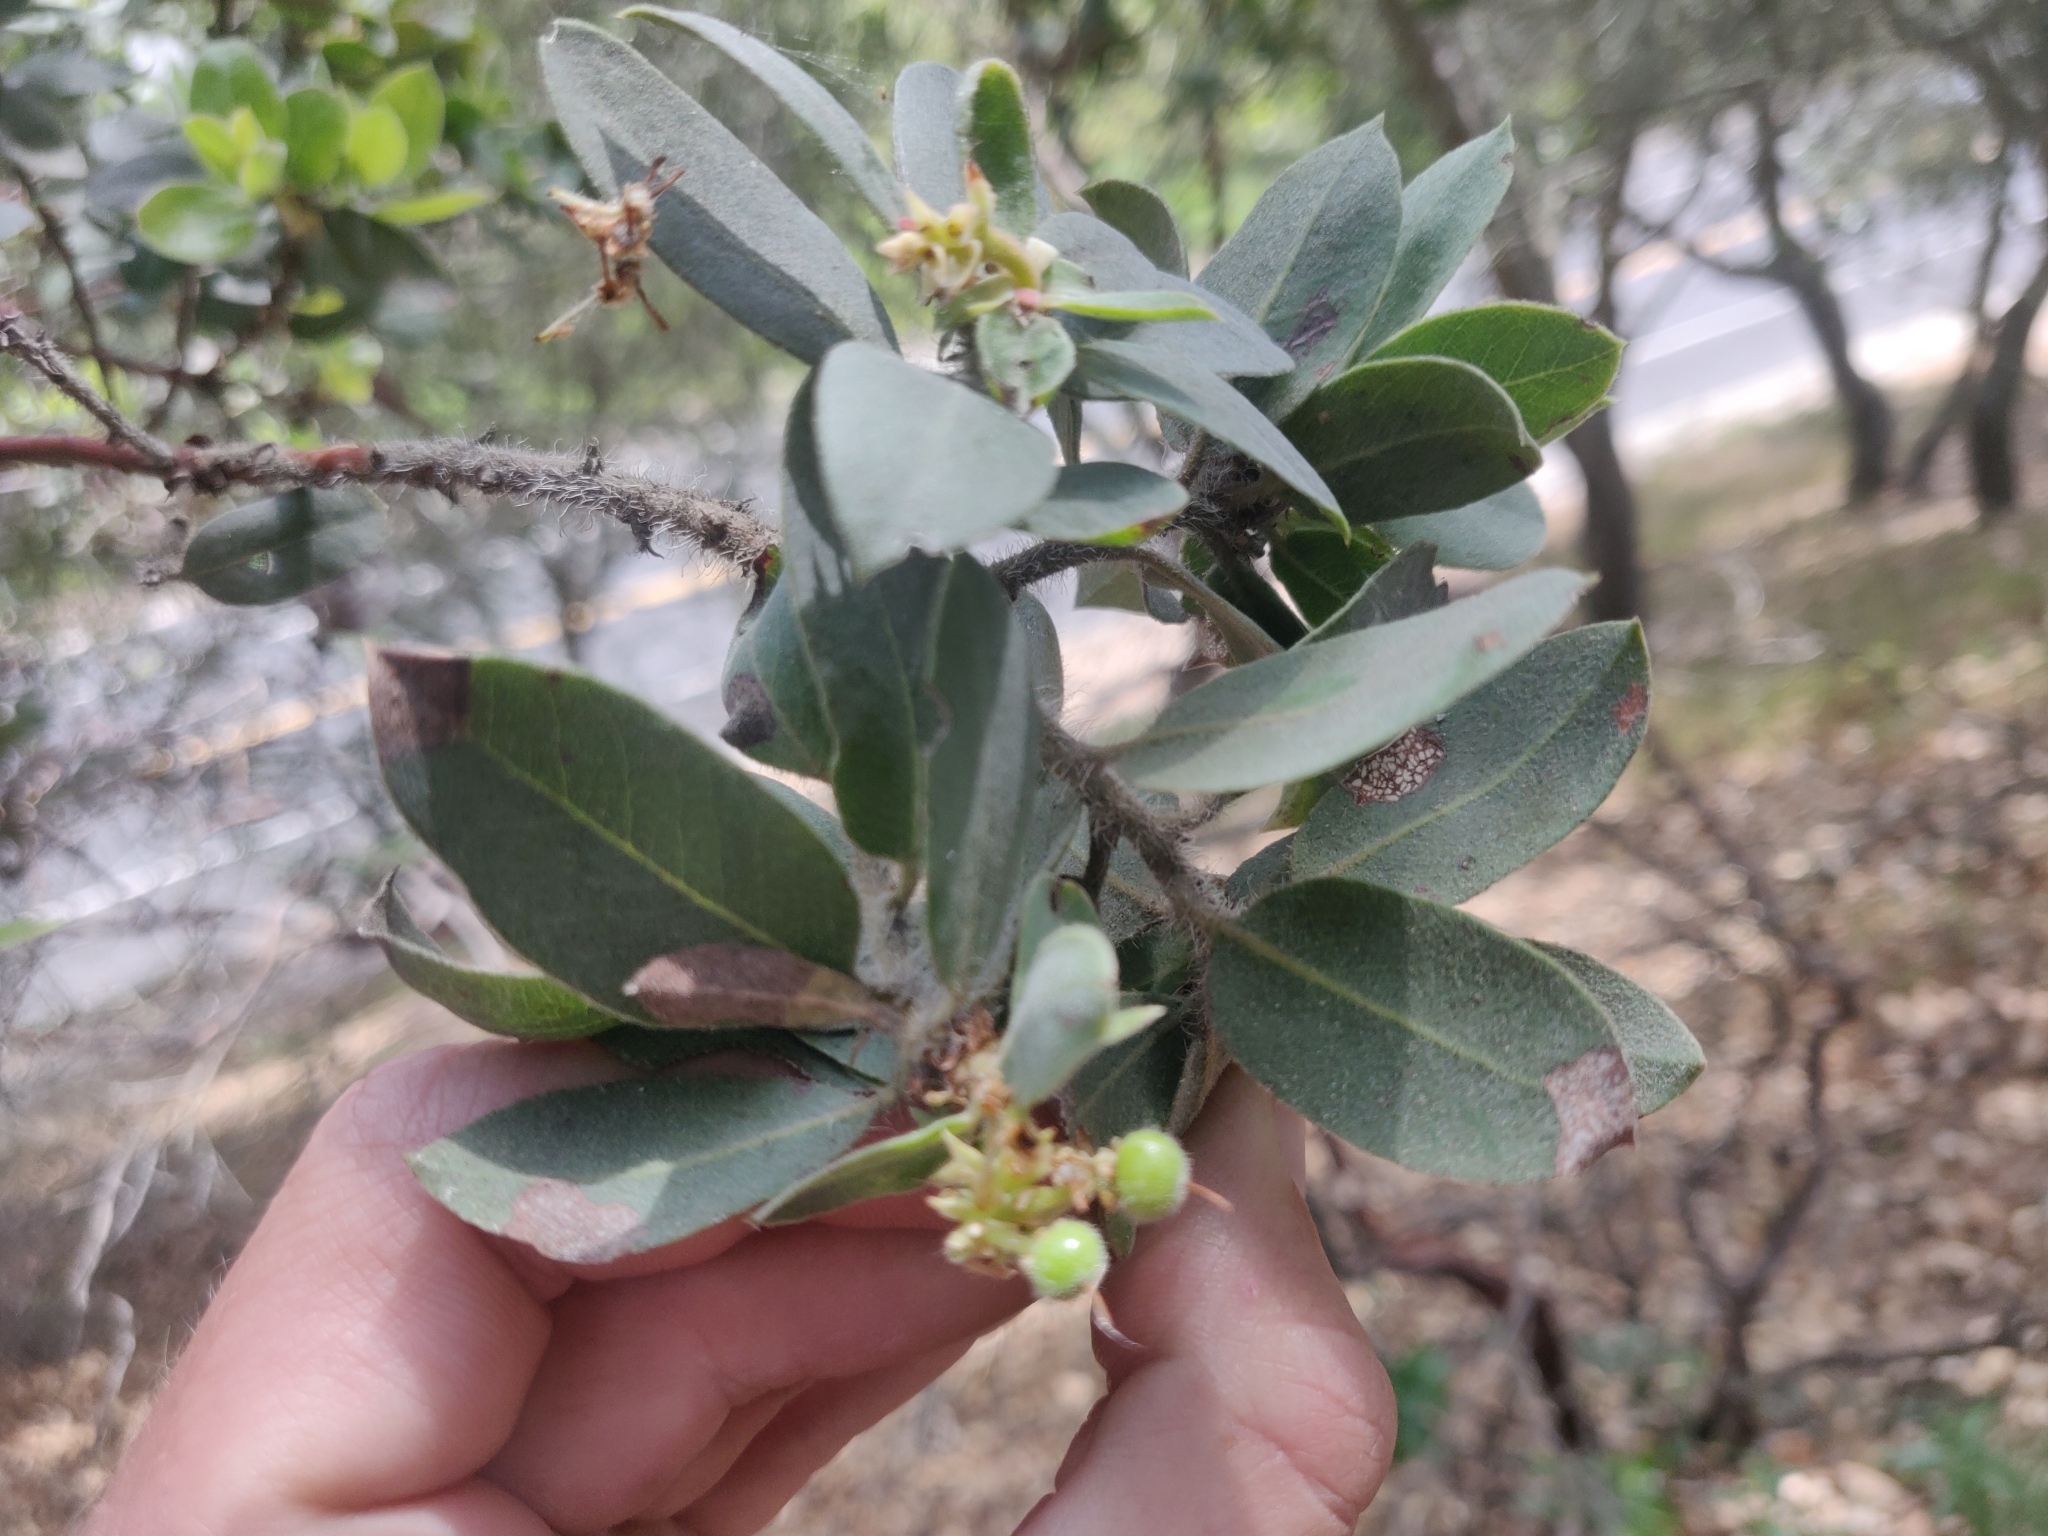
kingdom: Plantae
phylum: Tracheophyta
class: Magnoliopsida
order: Ericales
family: Ericaceae
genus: Arctostaphylos
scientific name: Arctostaphylos crustacea
